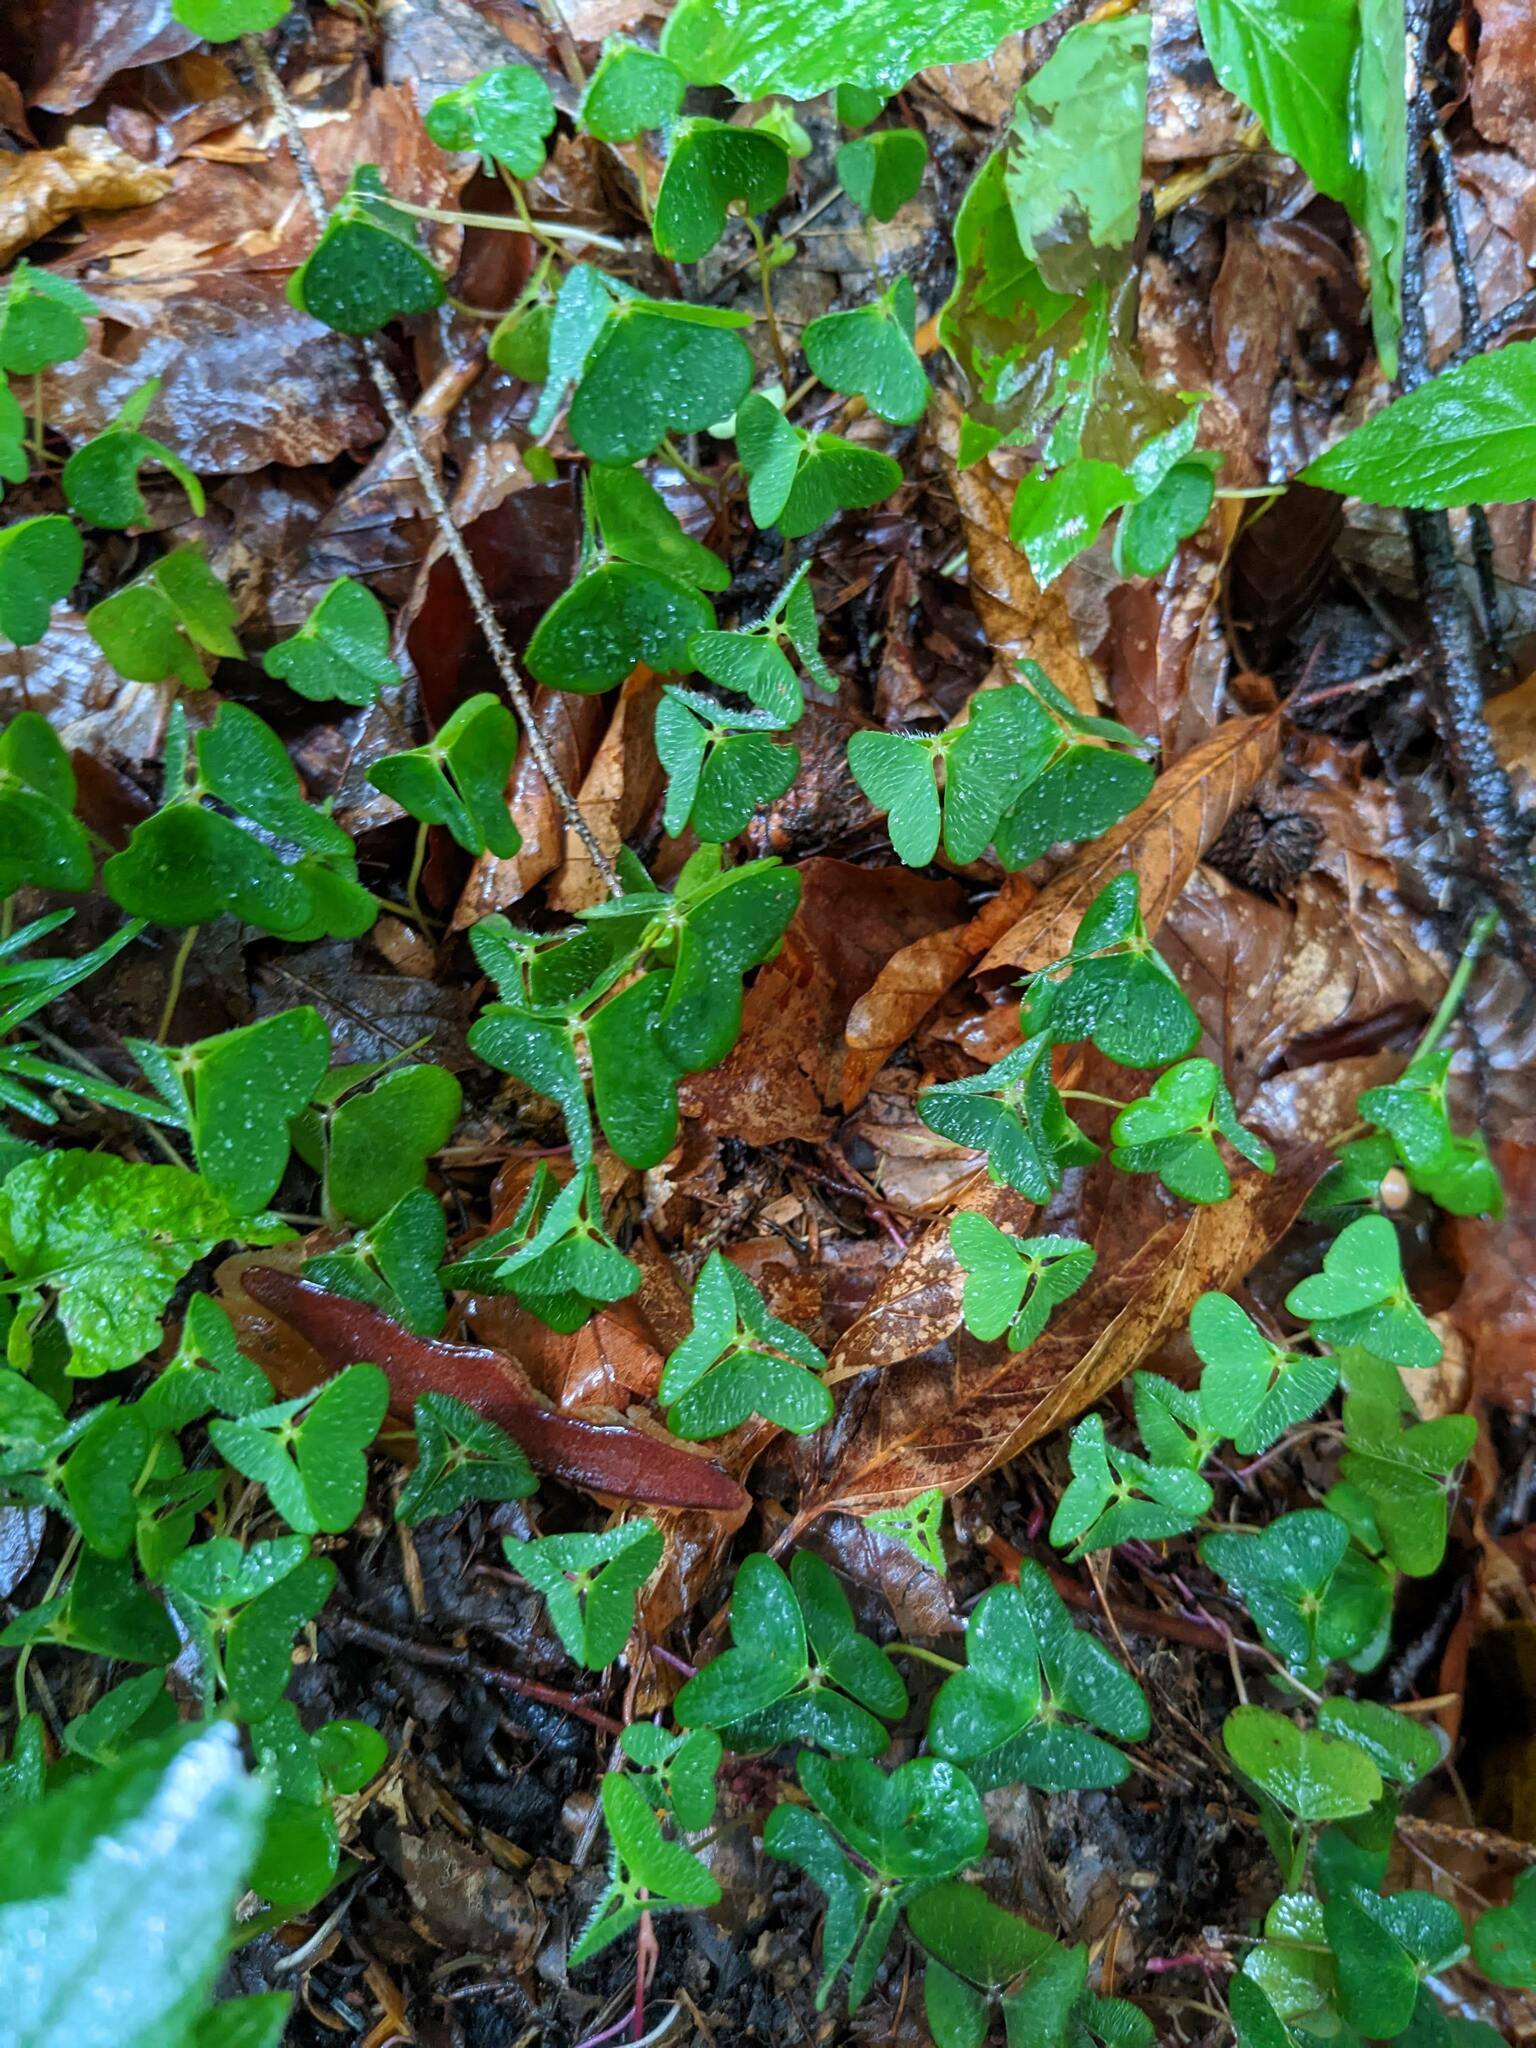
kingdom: Plantae
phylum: Tracheophyta
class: Magnoliopsida
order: Oxalidales
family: Oxalidaceae
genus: Oxalis
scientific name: Oxalis acetosella
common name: Wood-sorrel
